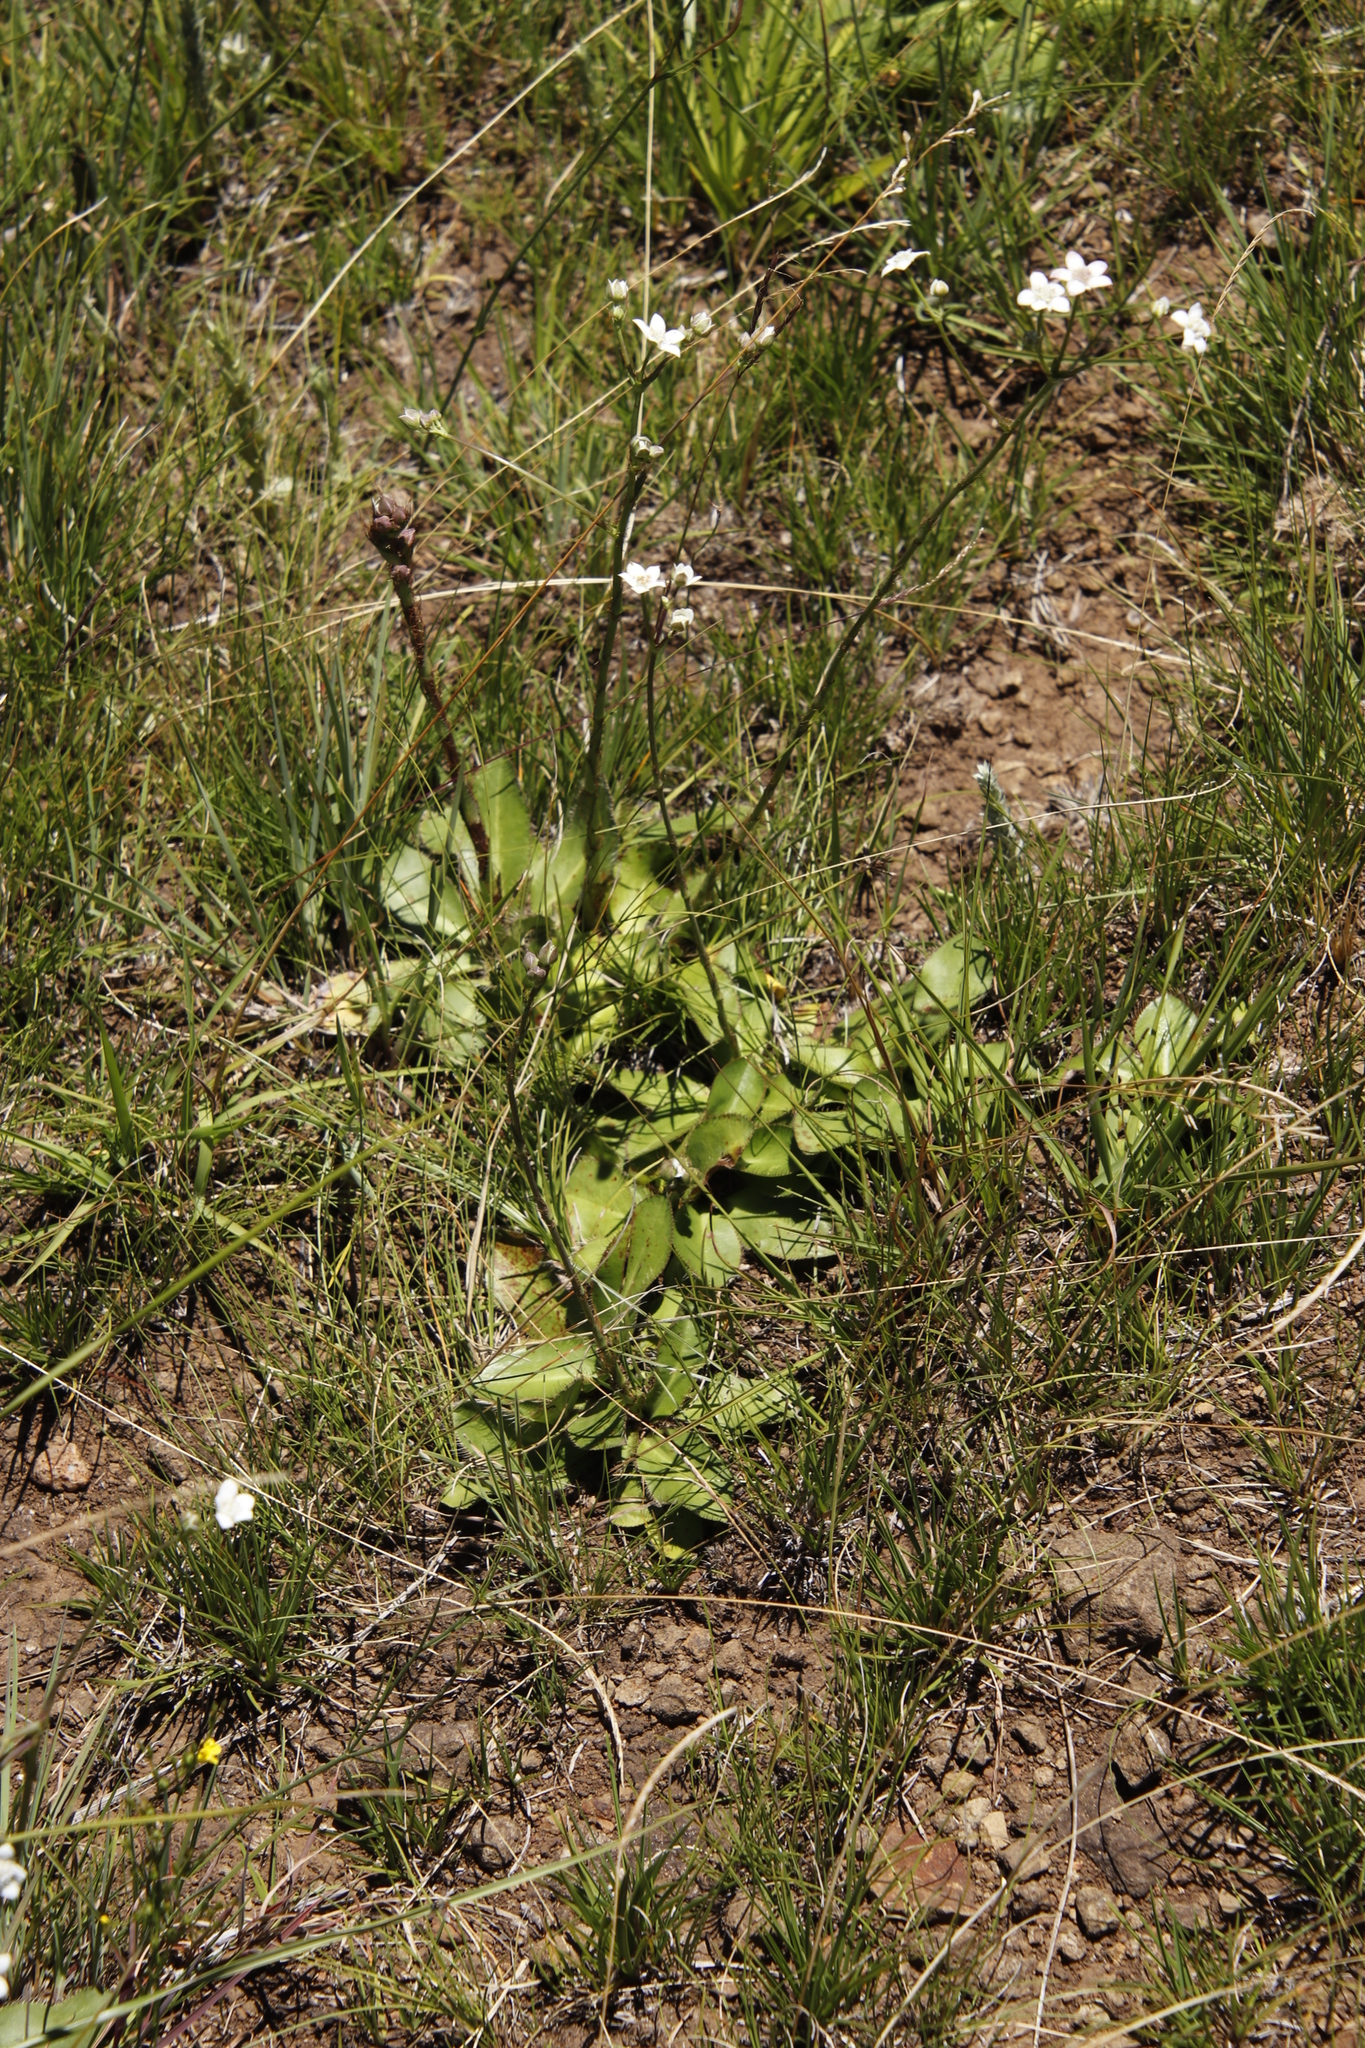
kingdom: Plantae
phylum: Tracheophyta
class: Magnoliopsida
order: Apiales
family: Apiaceae
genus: Alepidea
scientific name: Alepidea natalensis
